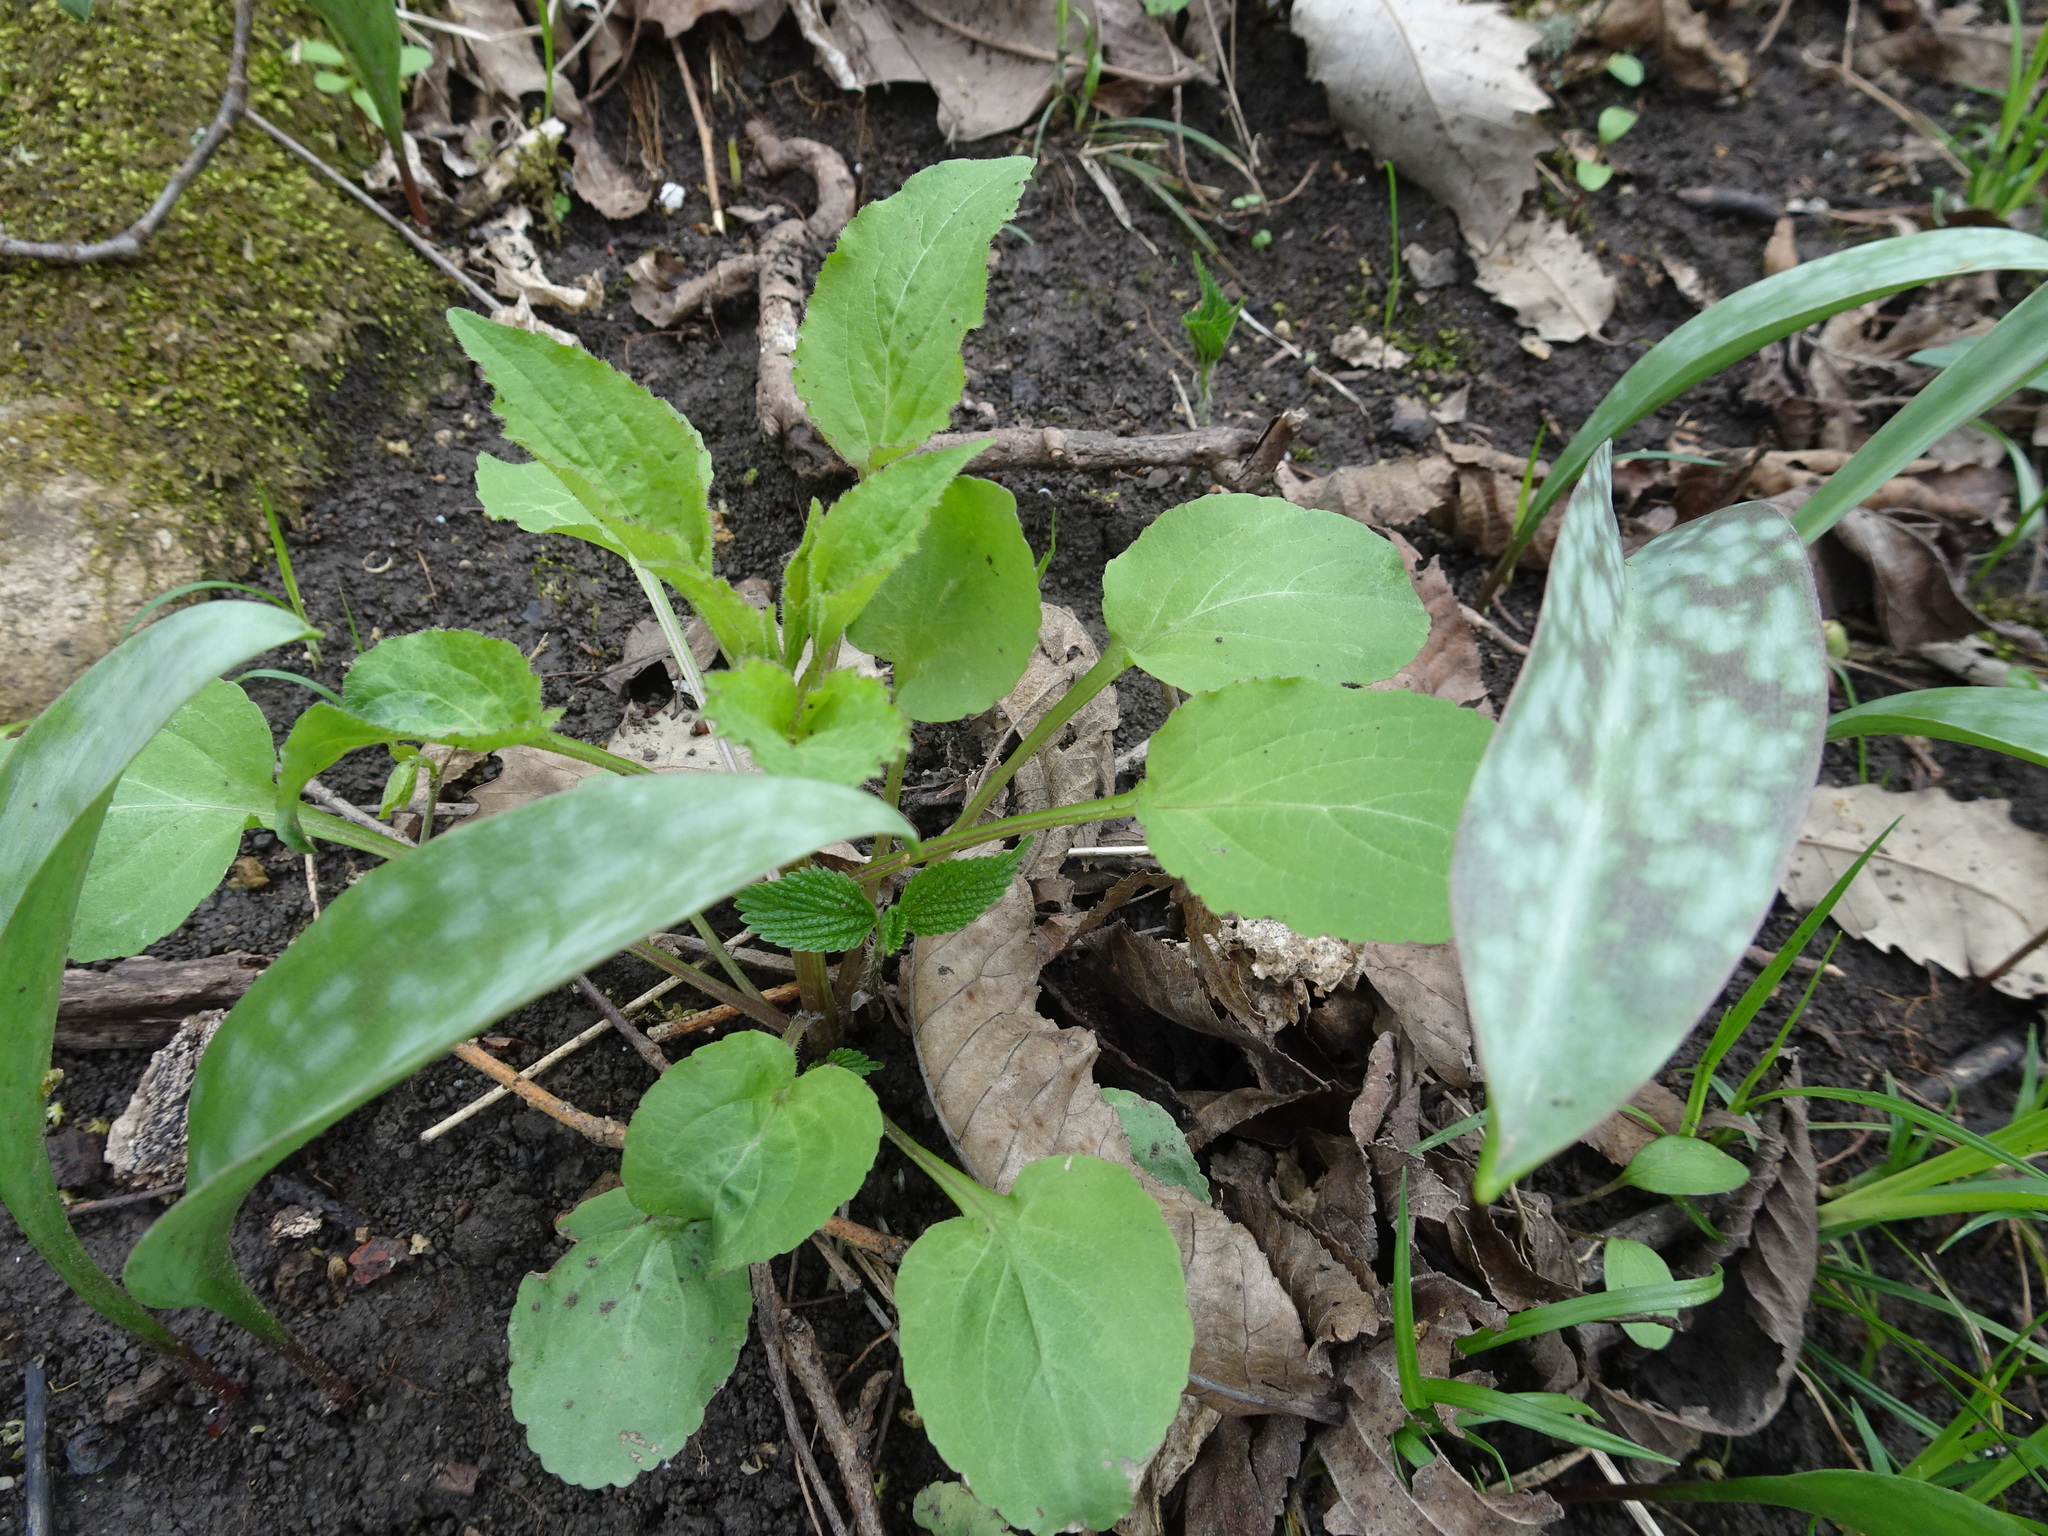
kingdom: Plantae
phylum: Tracheophyta
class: Liliopsida
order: Liliales
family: Liliaceae
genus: Erythronium
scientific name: Erythronium albidum
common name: White trout-lily
